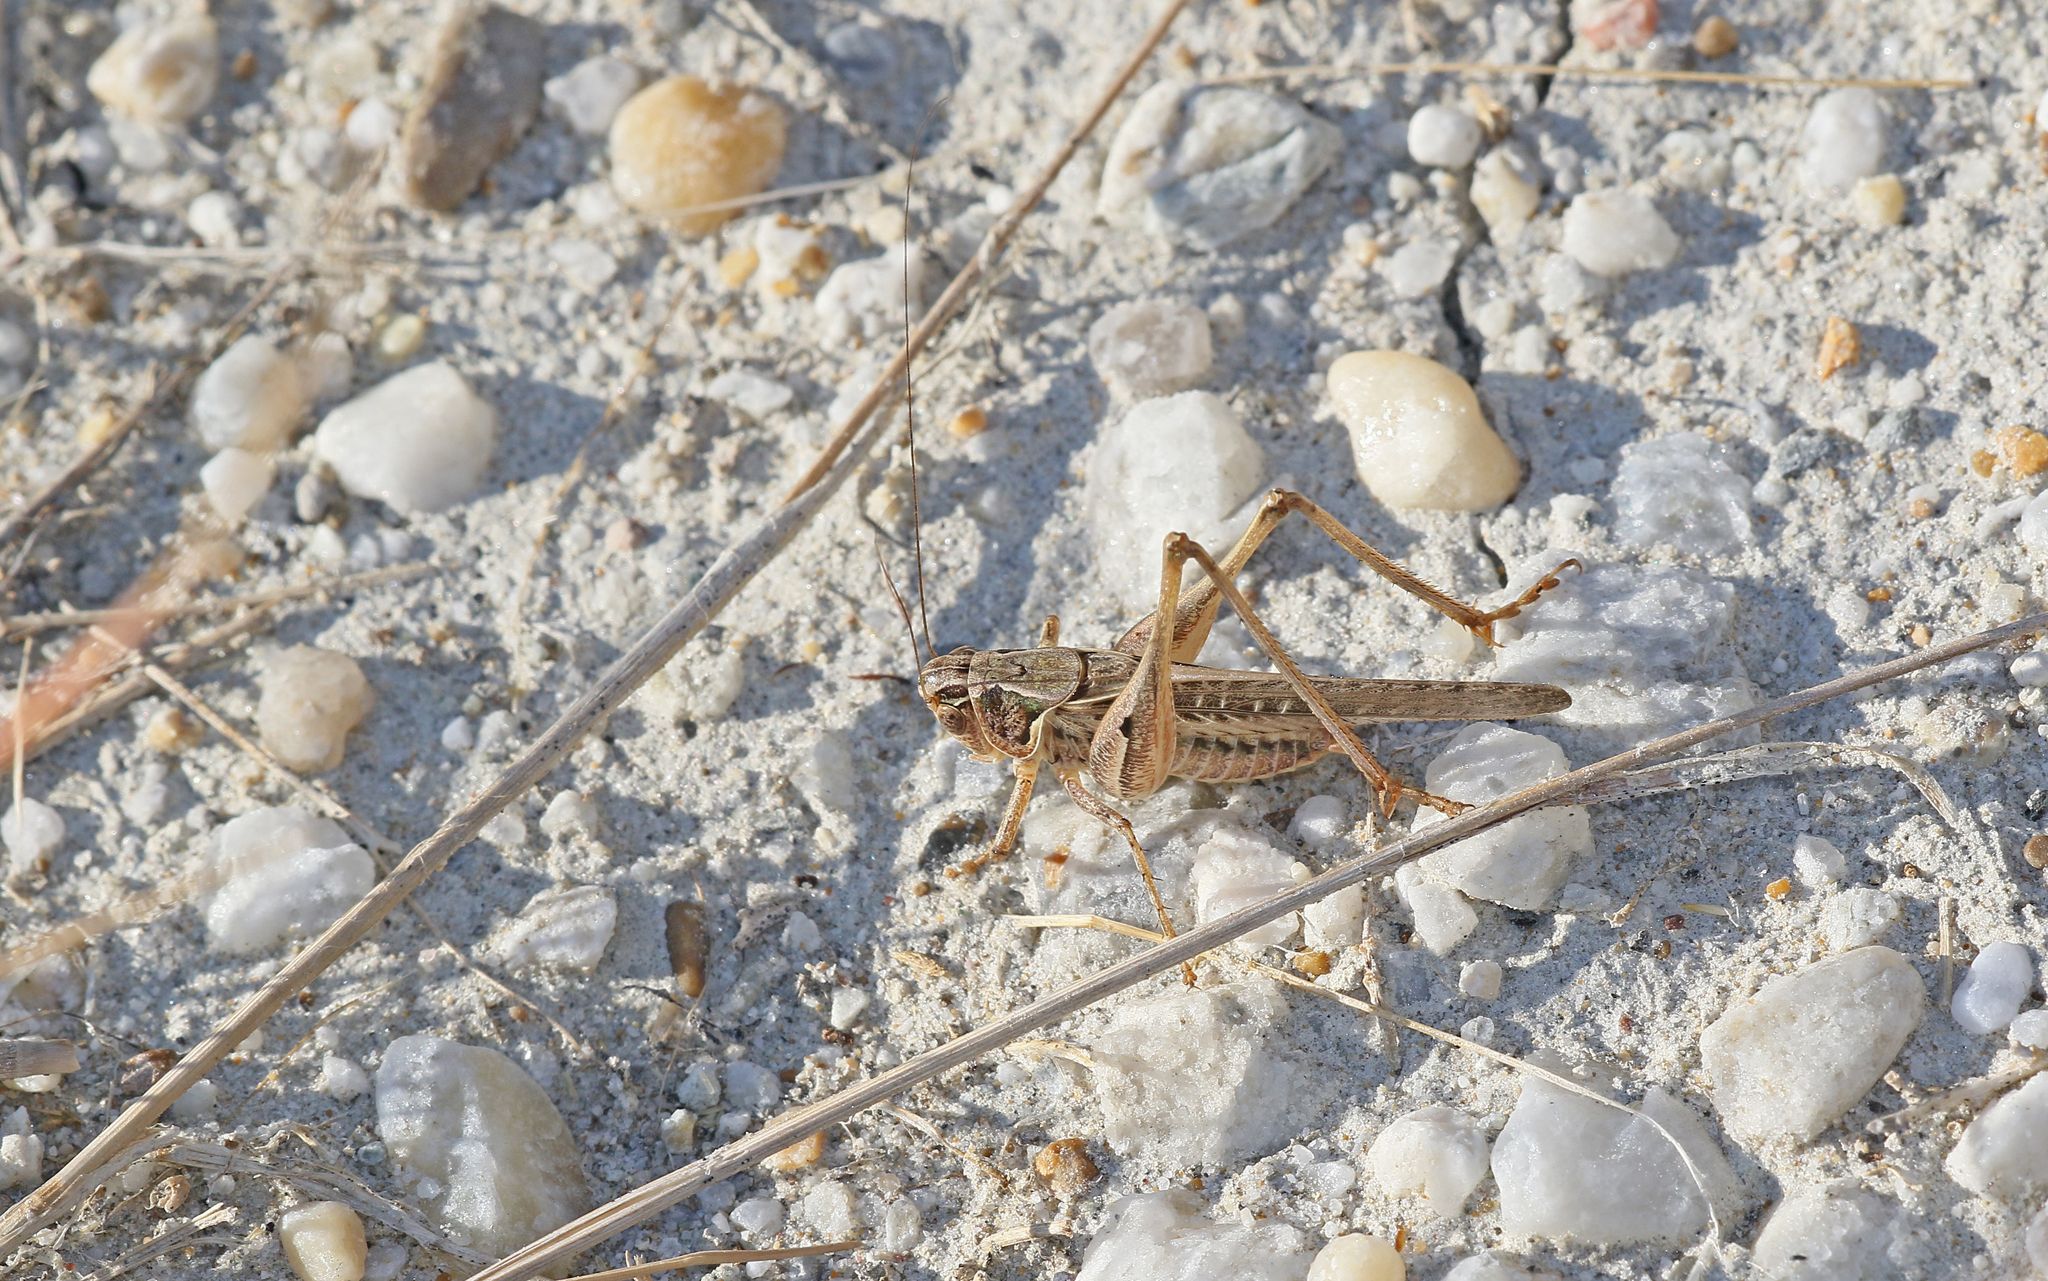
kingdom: Animalia
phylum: Arthropoda
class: Insecta
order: Orthoptera
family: Tettigoniidae
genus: Platycleis
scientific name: Platycleis affinis
